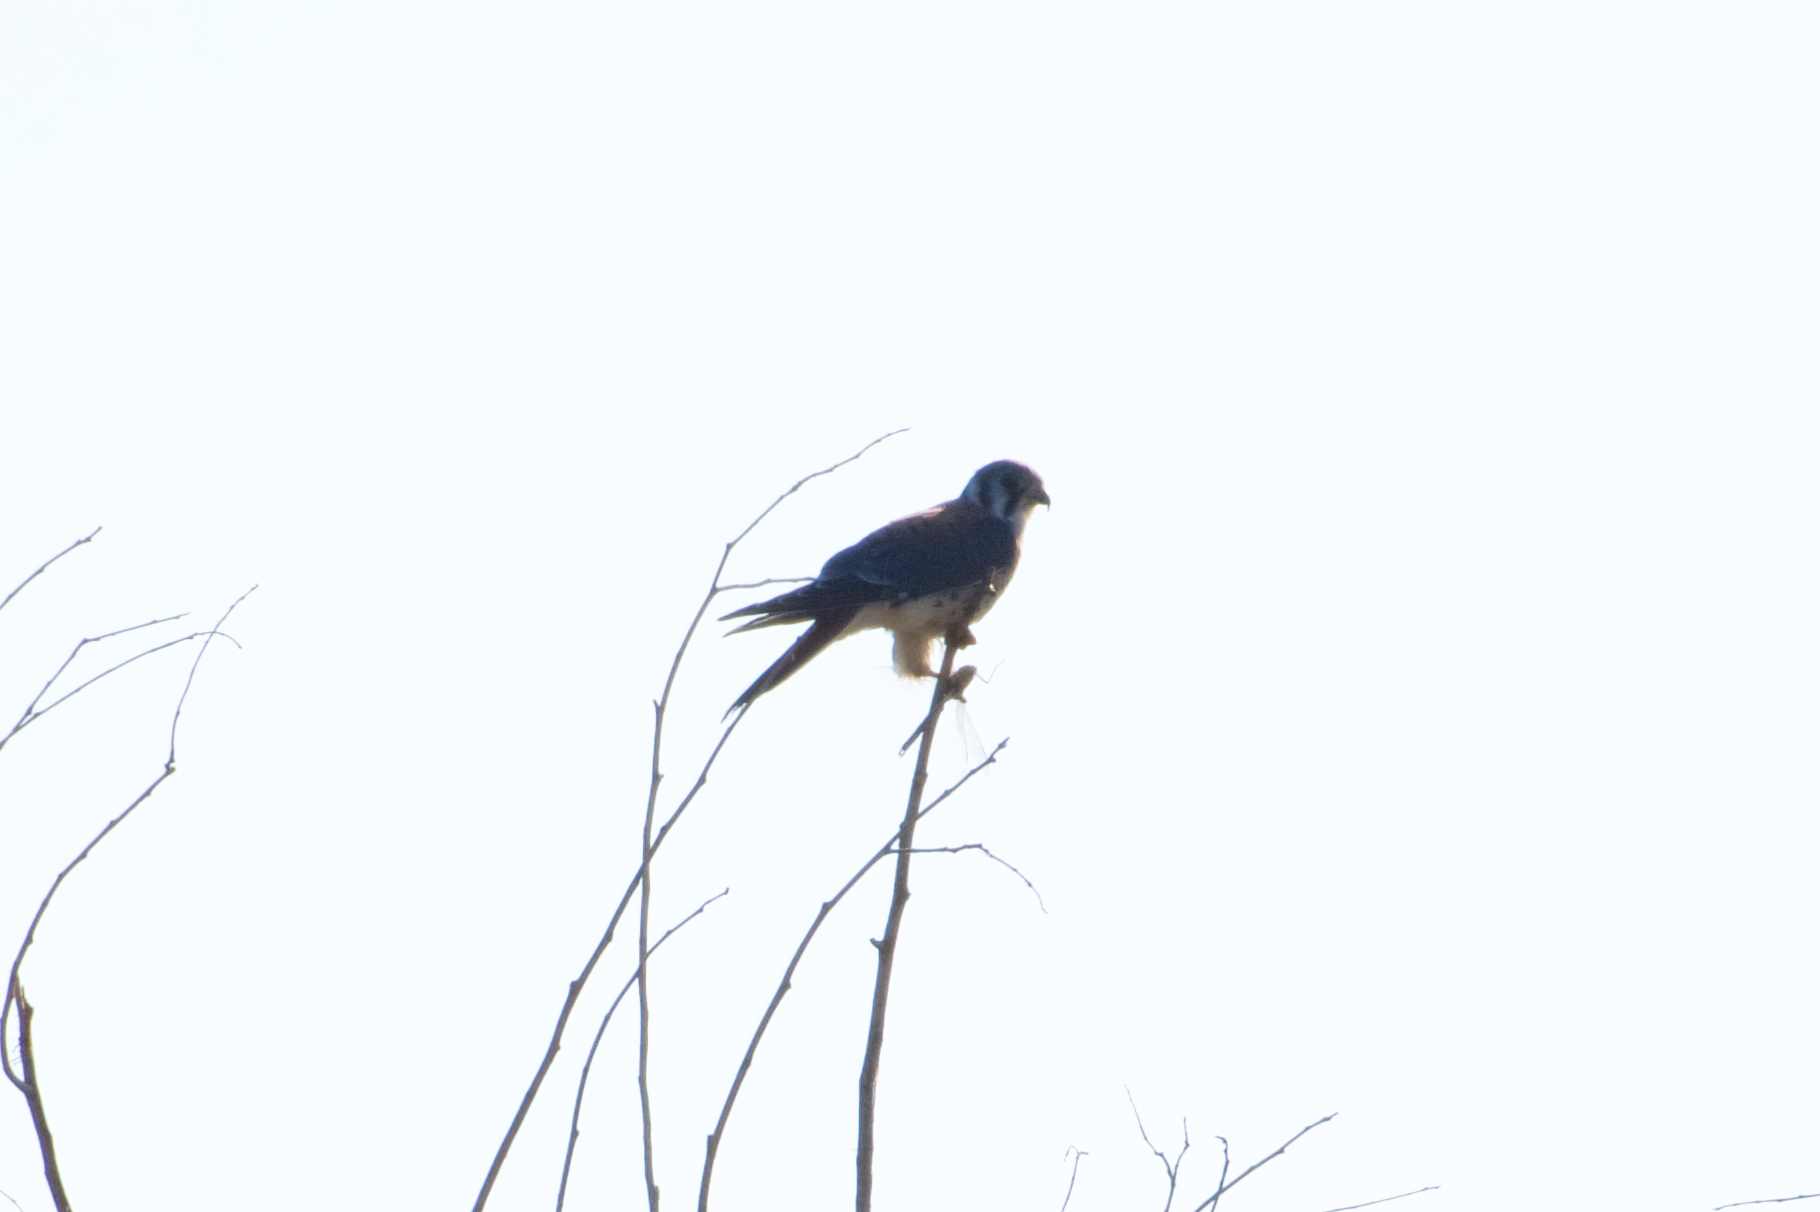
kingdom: Animalia
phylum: Chordata
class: Aves
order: Falconiformes
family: Falconidae
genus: Falco
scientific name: Falco sparverius
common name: American kestrel
